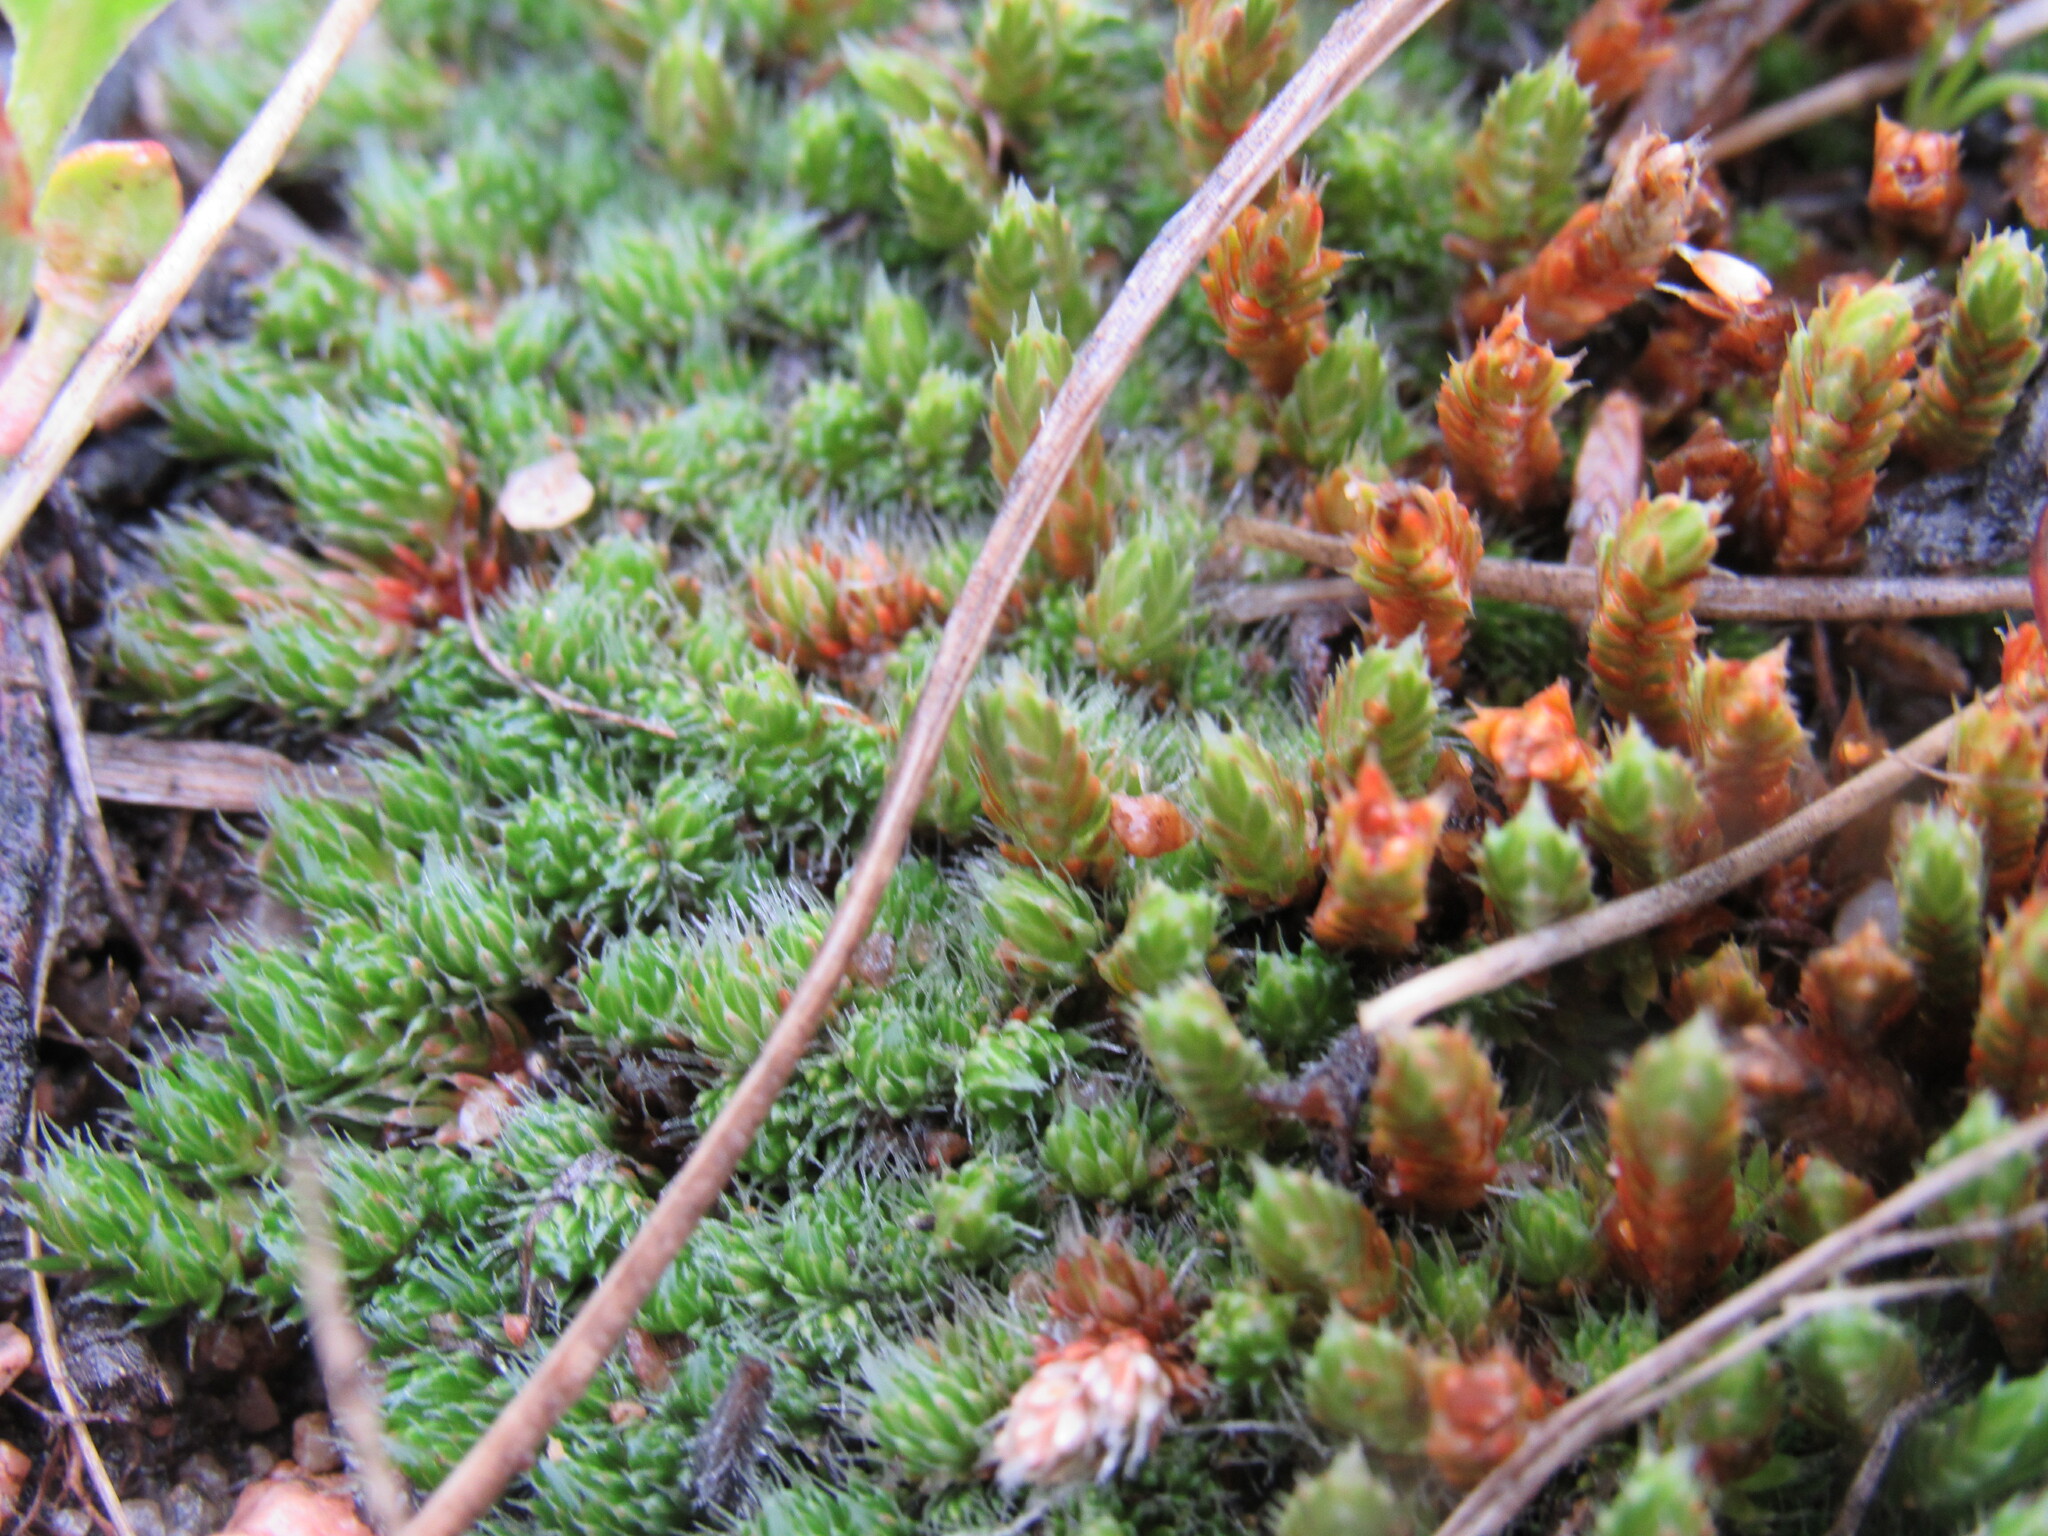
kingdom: Plantae
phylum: Tracheophyta
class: Lycopodiopsida
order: Selaginellales
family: Selaginellaceae
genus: Selaginella
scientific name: Selaginella densa
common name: Mountain spike-moss
